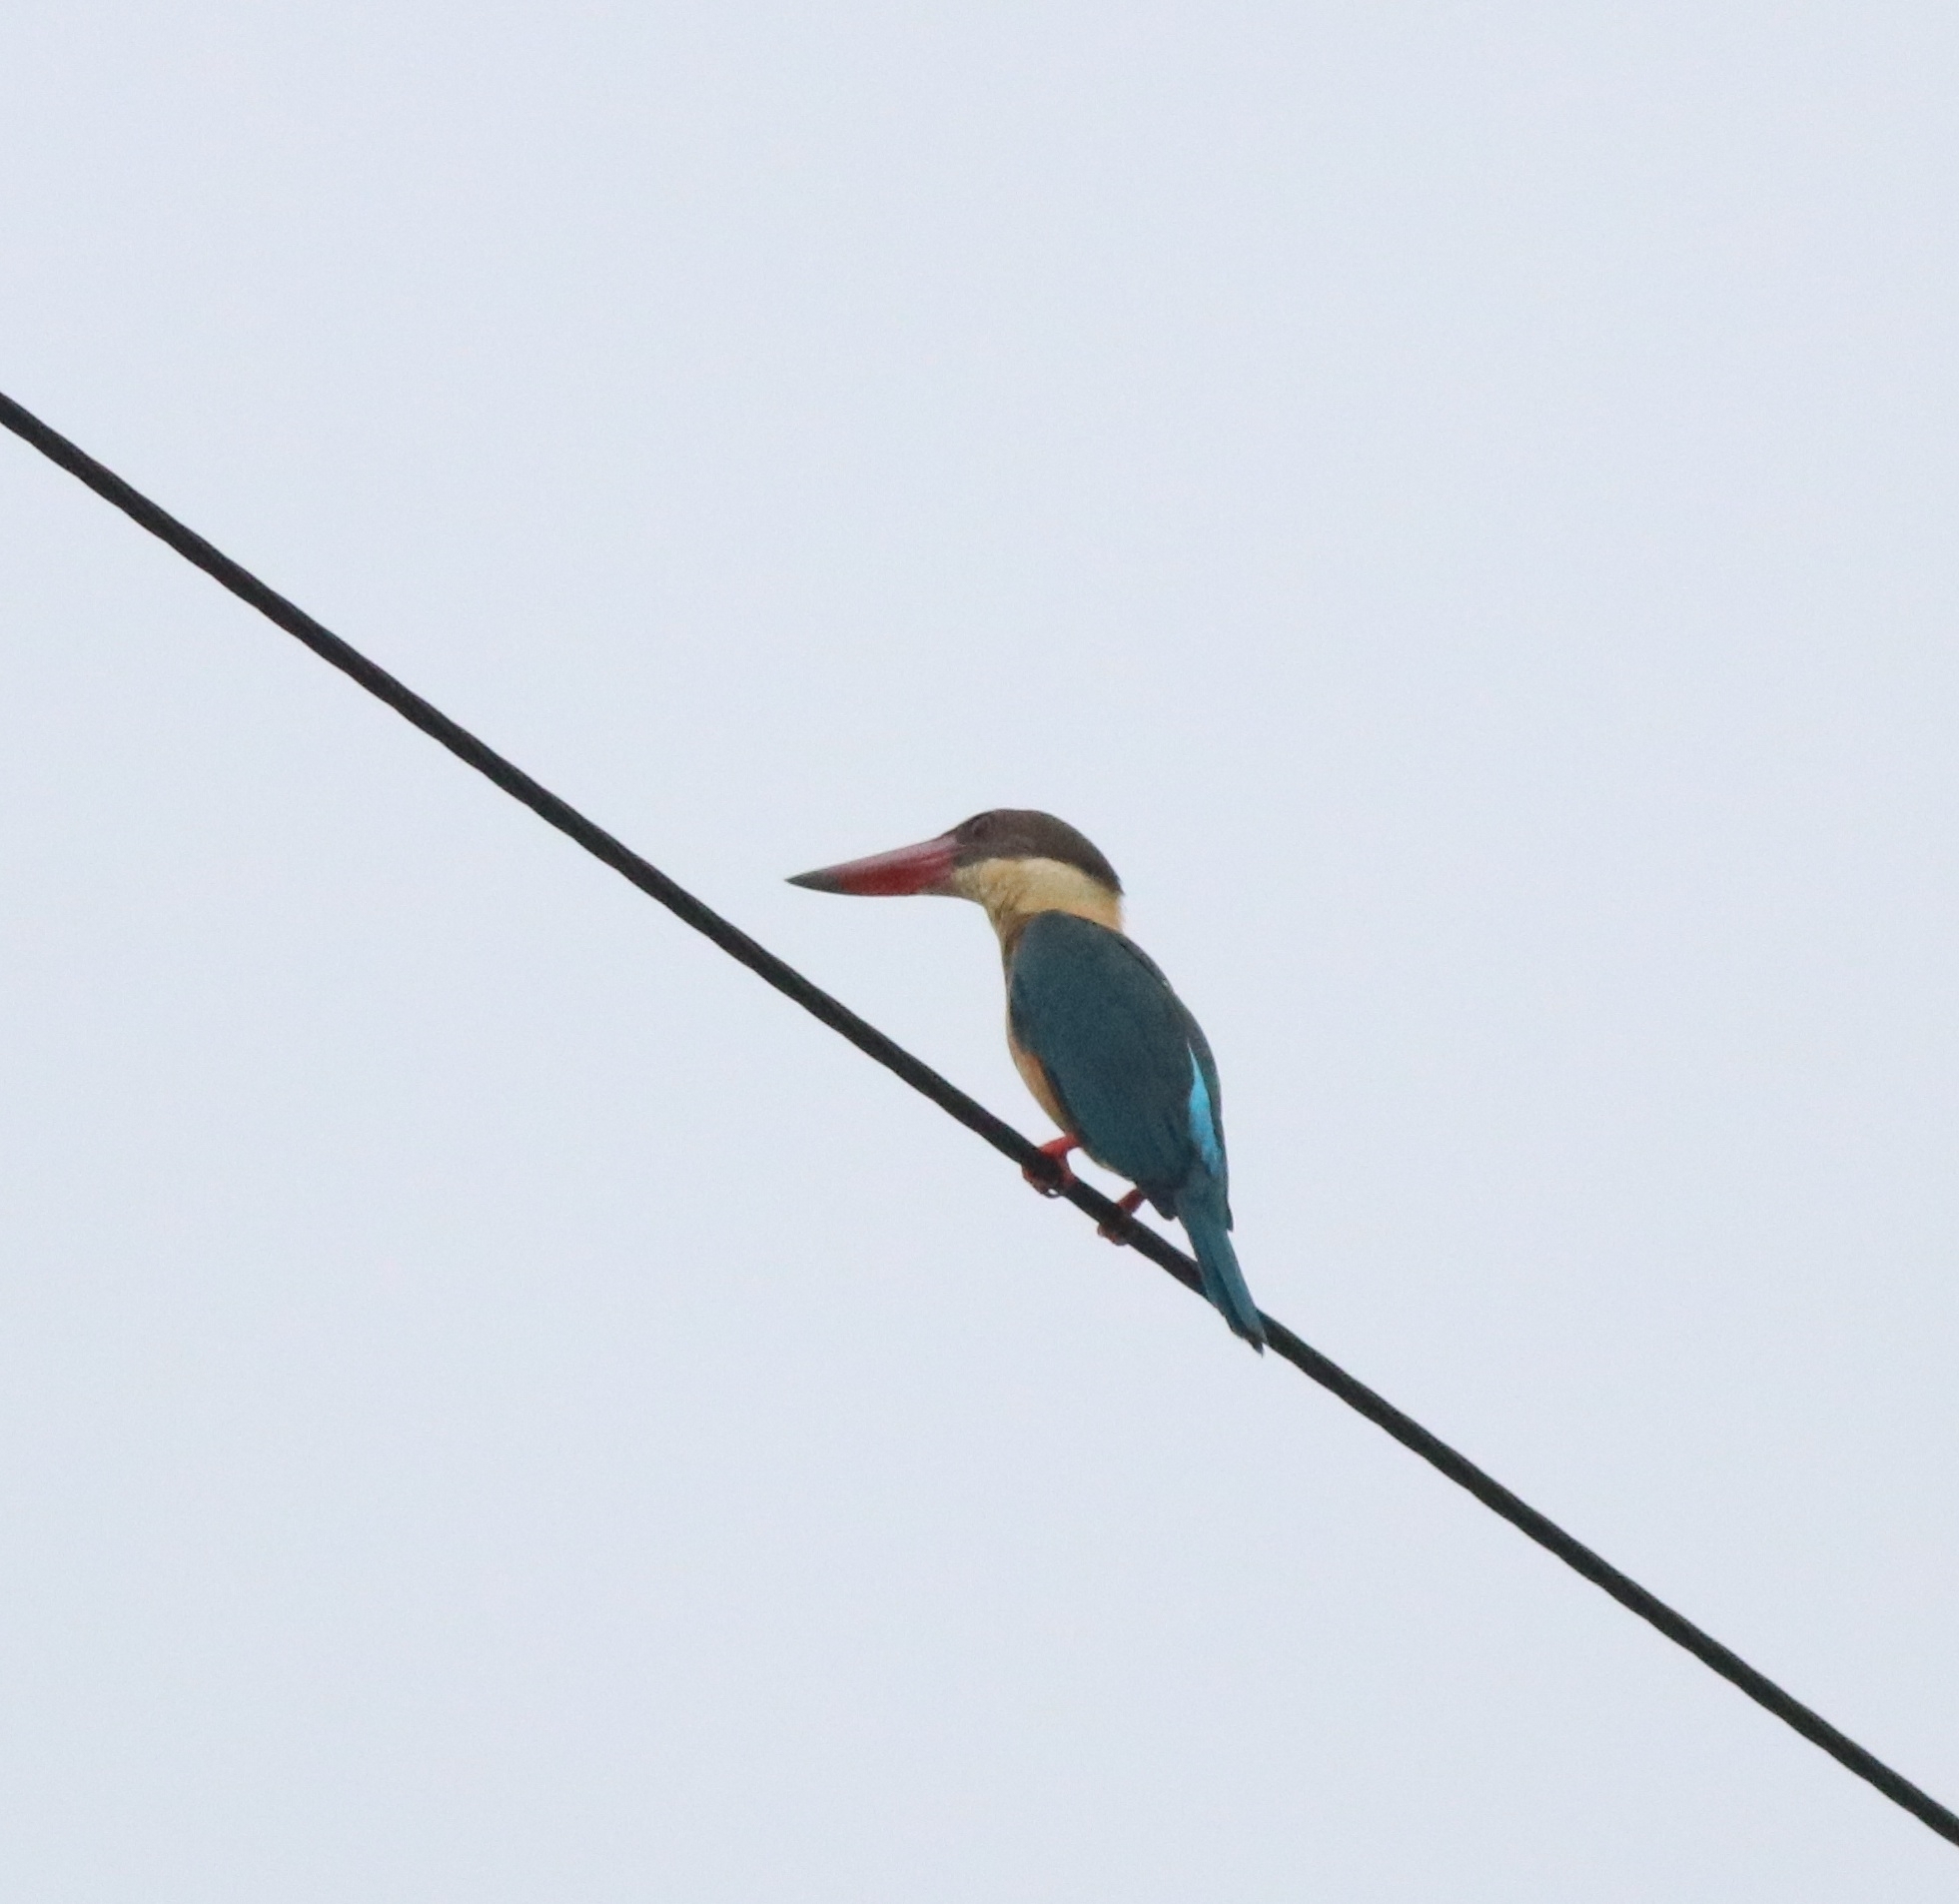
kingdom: Animalia
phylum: Chordata
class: Aves
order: Coraciiformes
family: Alcedinidae
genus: Pelargopsis
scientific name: Pelargopsis capensis
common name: Stork-billed kingfisher
